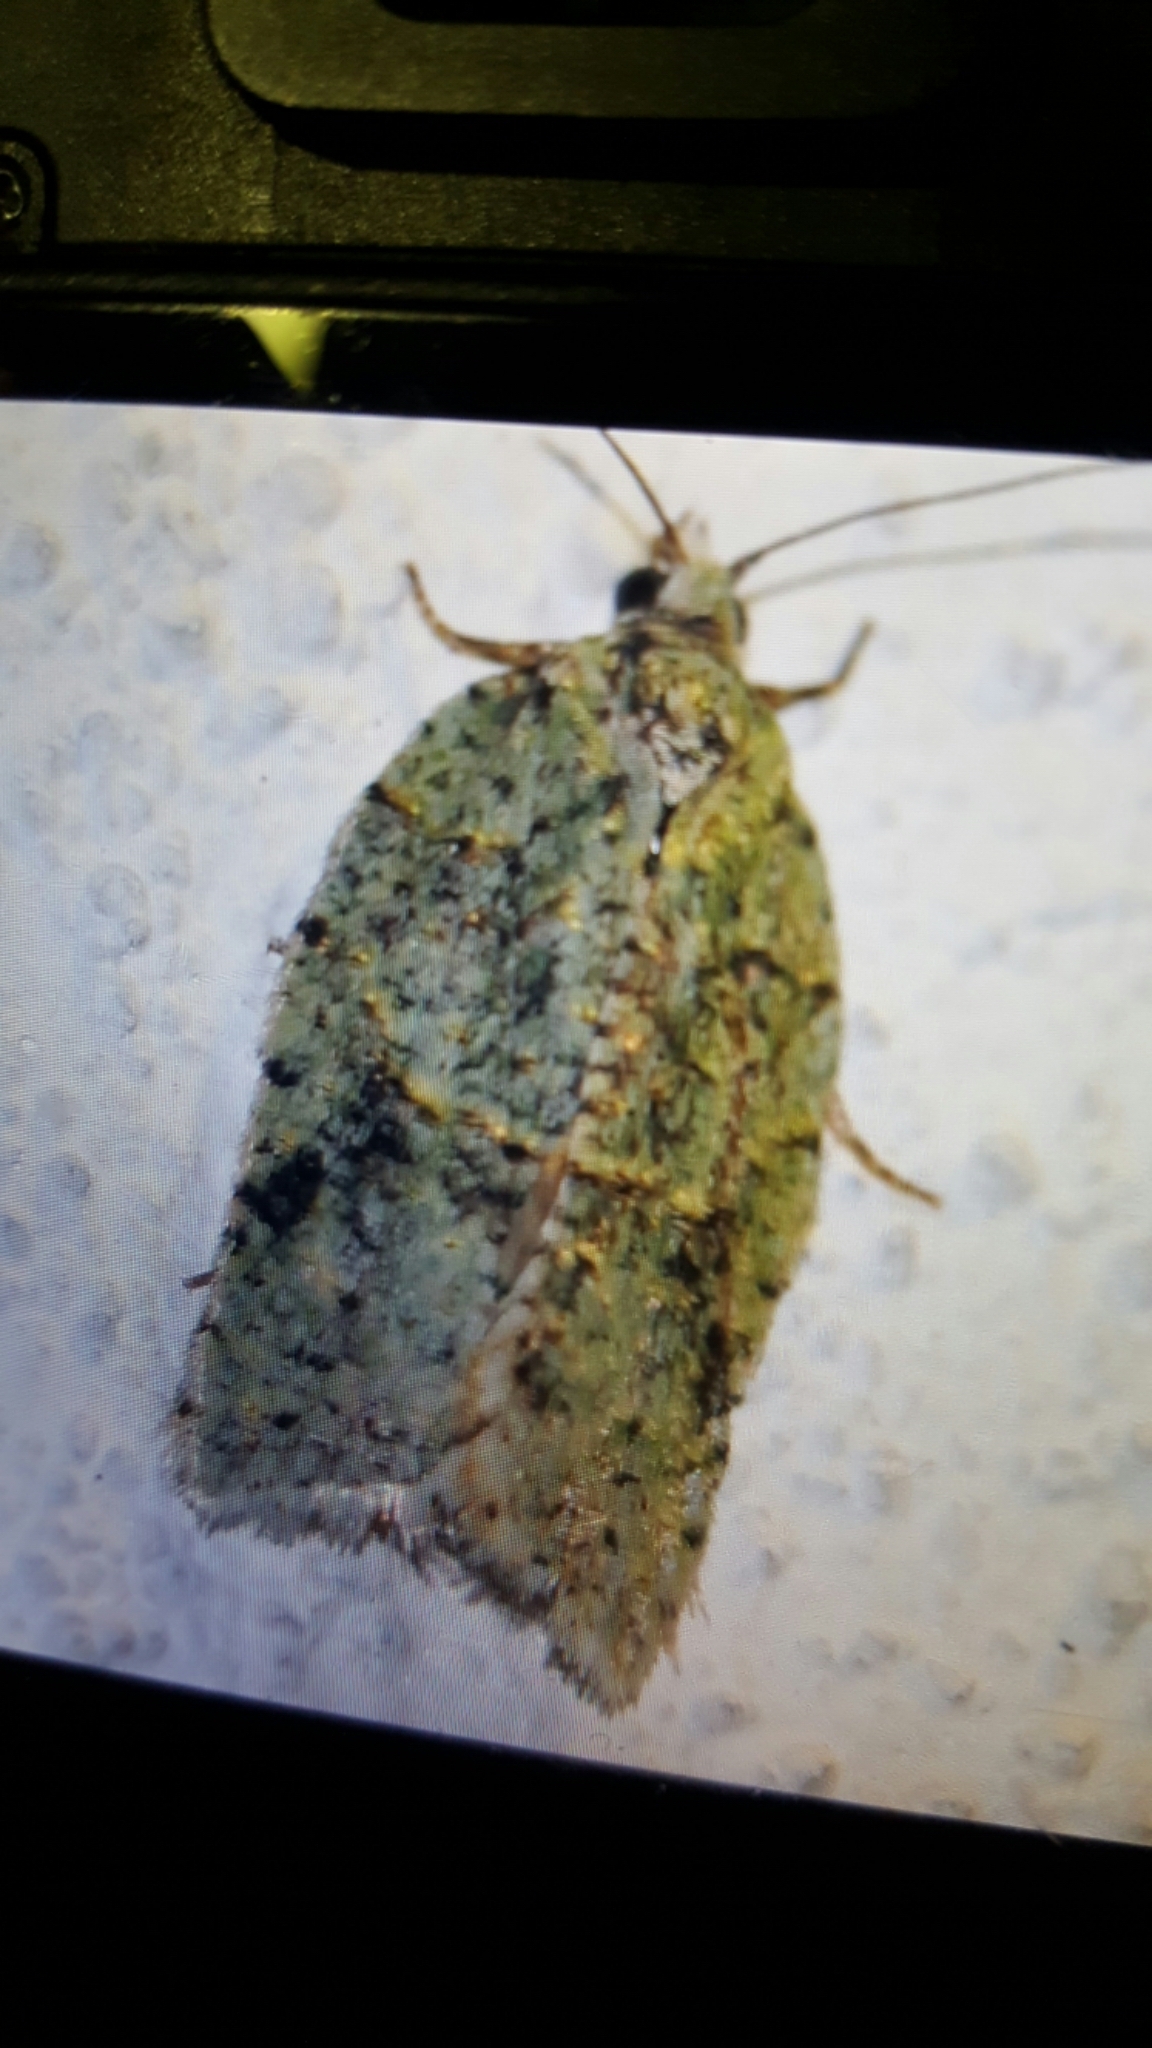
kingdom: Animalia
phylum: Arthropoda
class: Insecta
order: Lepidoptera
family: Tortricidae
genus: Acleris
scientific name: Acleris literana
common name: Lichen button
